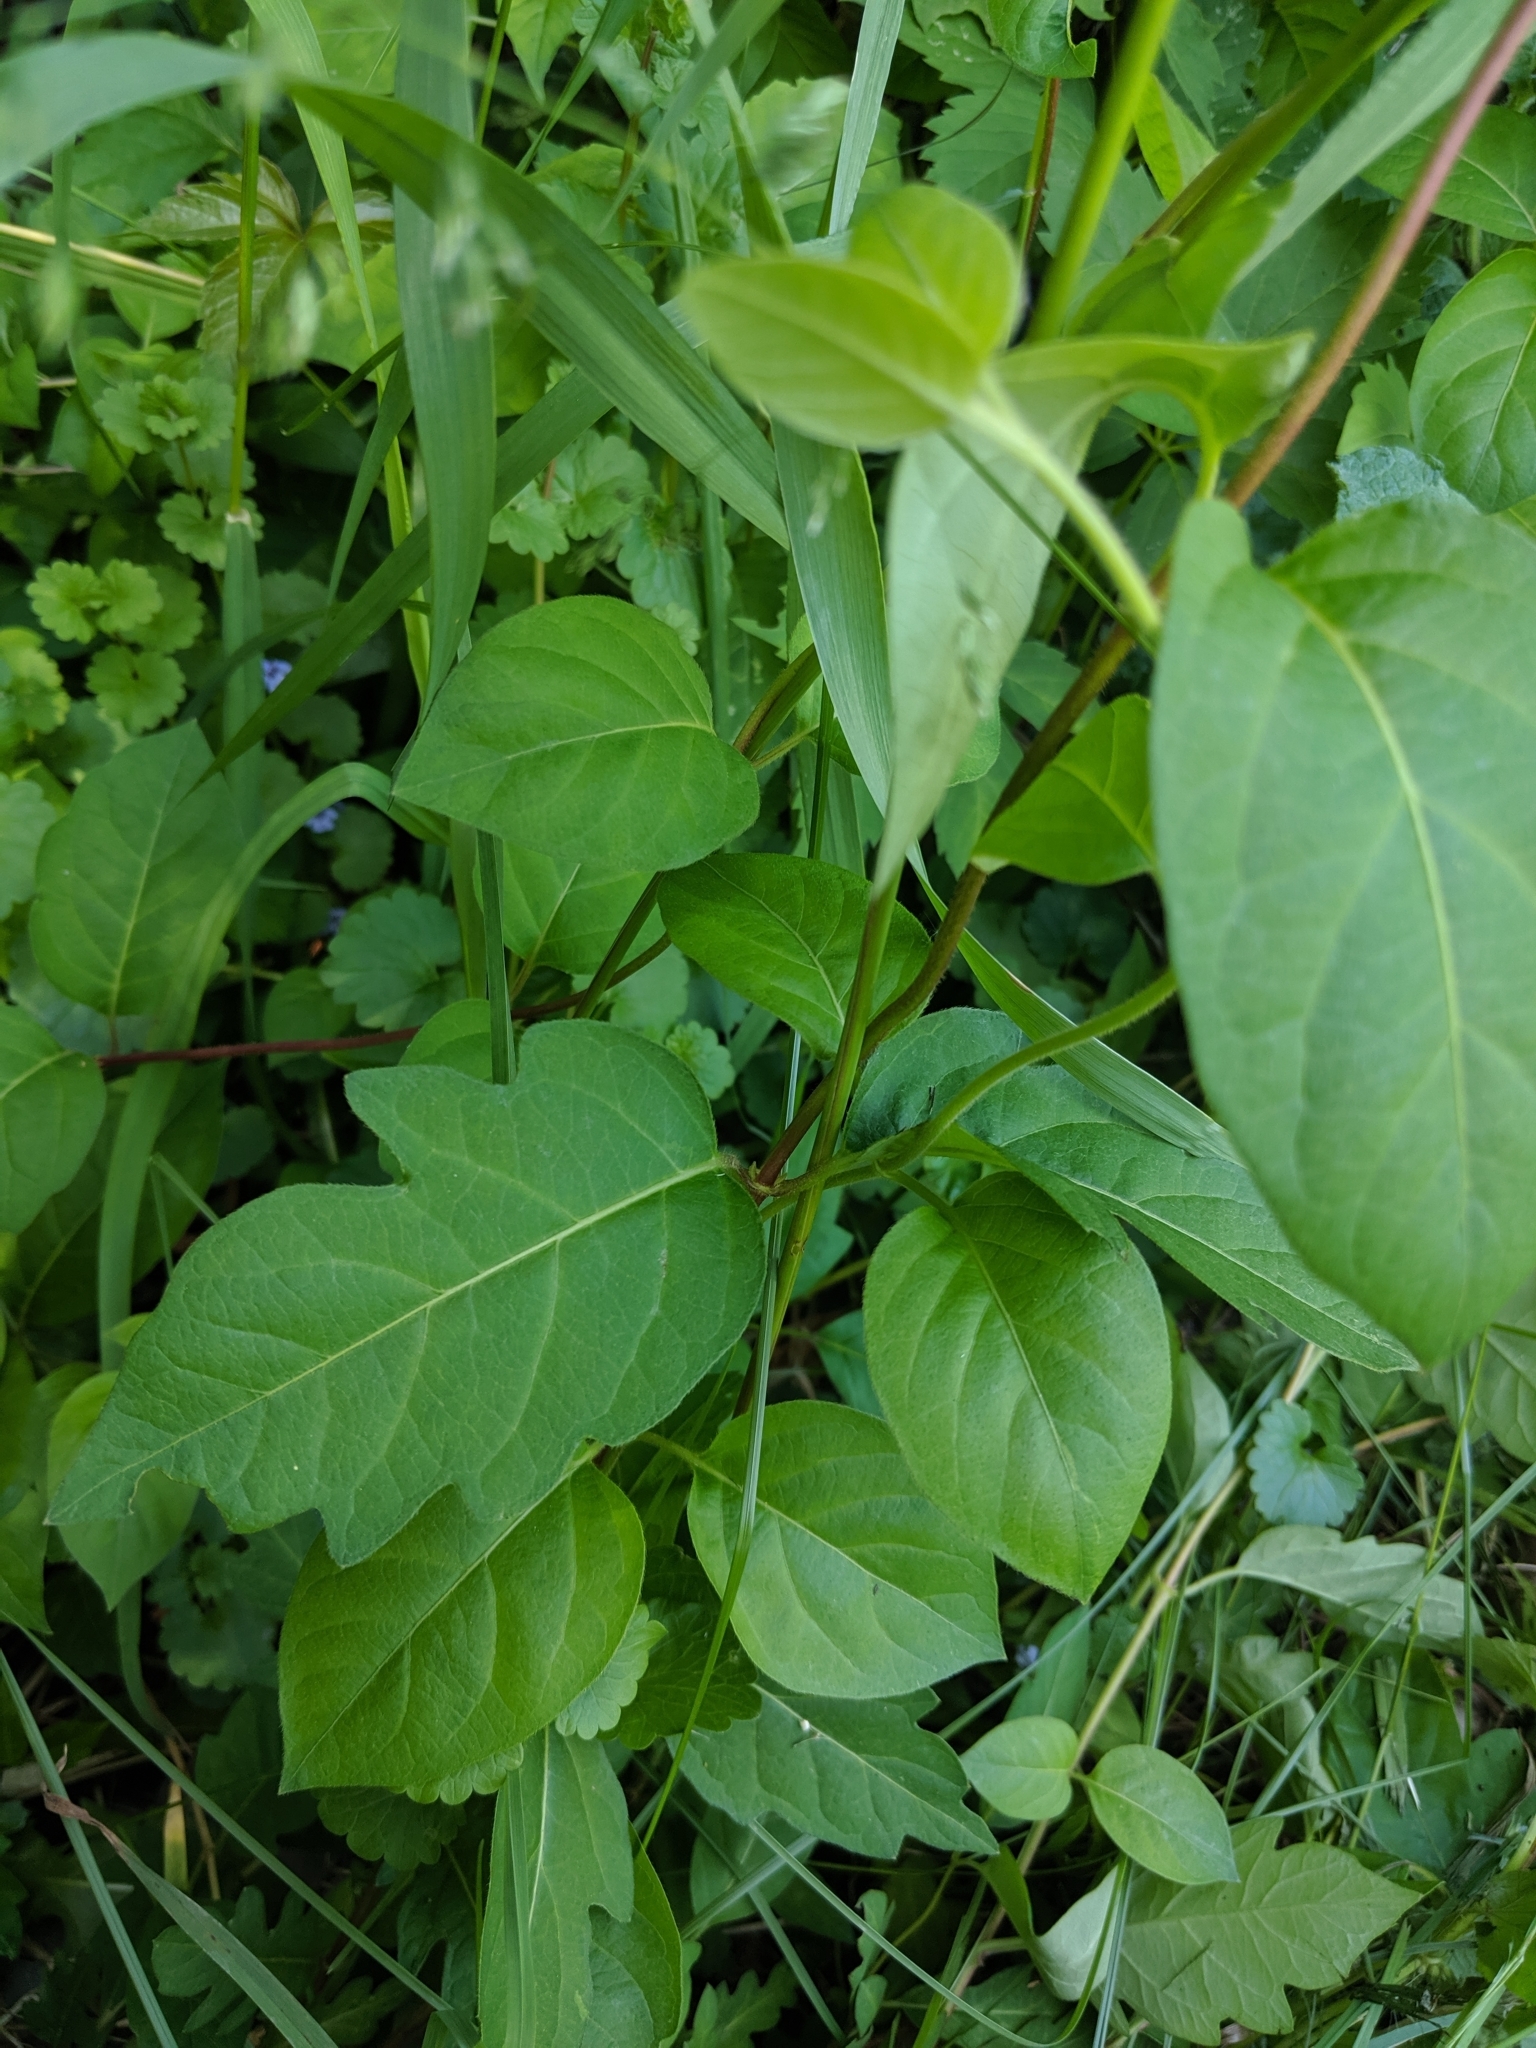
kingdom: Plantae
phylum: Tracheophyta
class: Magnoliopsida
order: Dipsacales
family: Caprifoliaceae
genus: Lonicera
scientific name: Lonicera japonica
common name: Japanese honeysuckle
